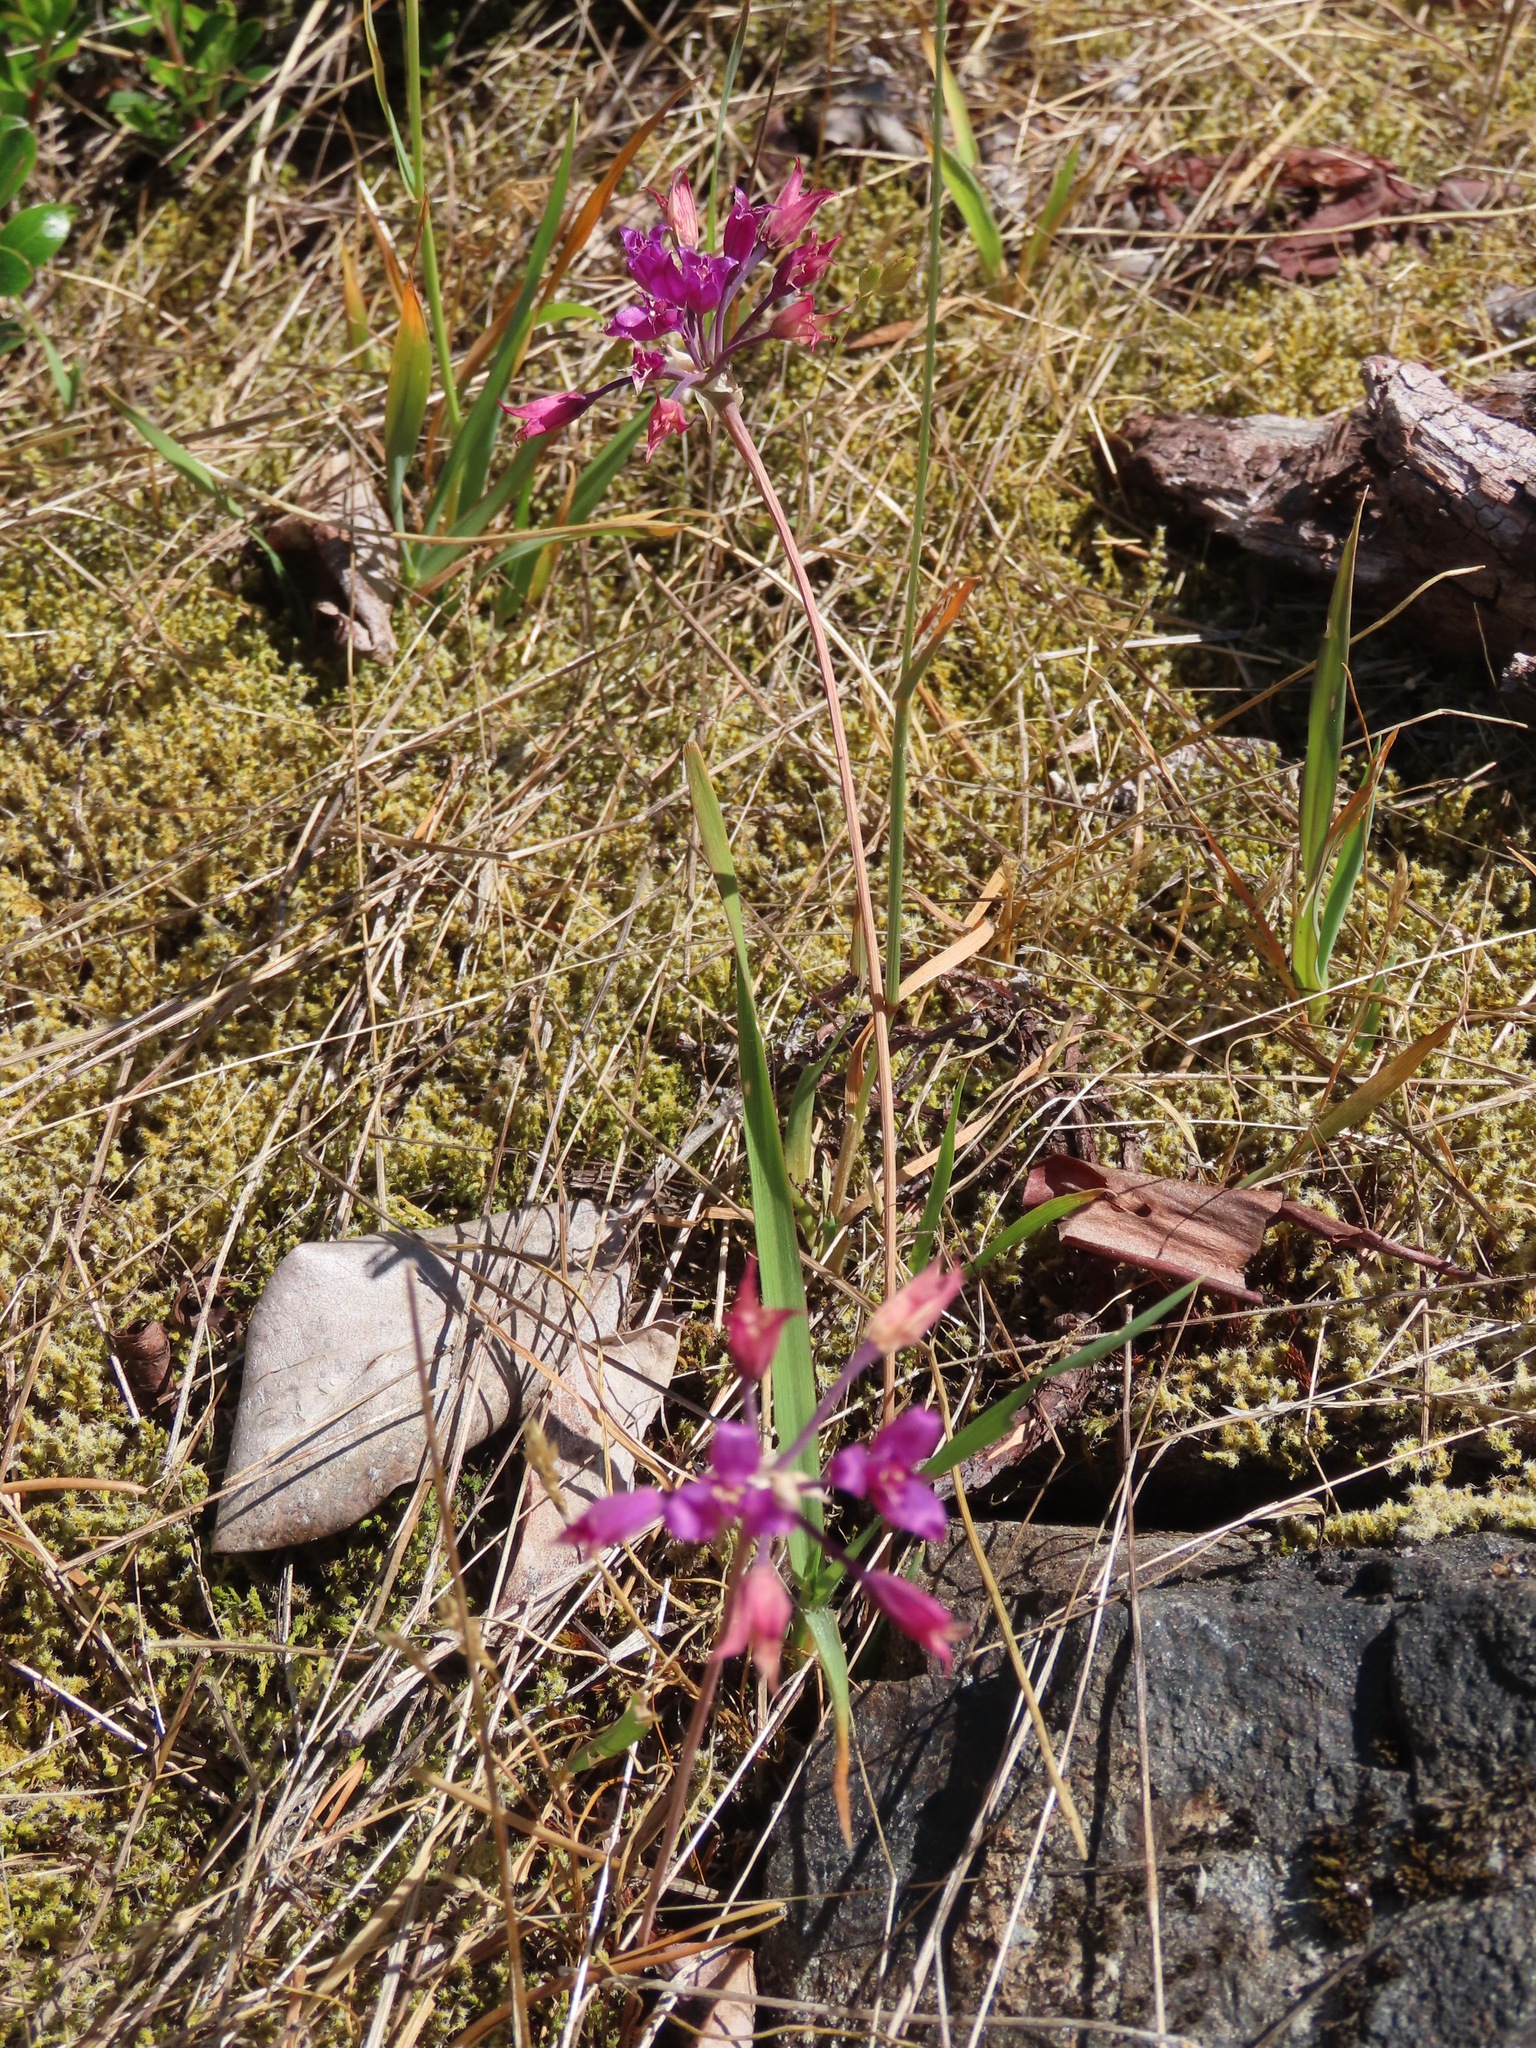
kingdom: Plantae
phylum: Tracheophyta
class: Liliopsida
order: Asparagales
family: Amaryllidaceae
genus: Allium
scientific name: Allium acuminatum
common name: Hooker's onion
